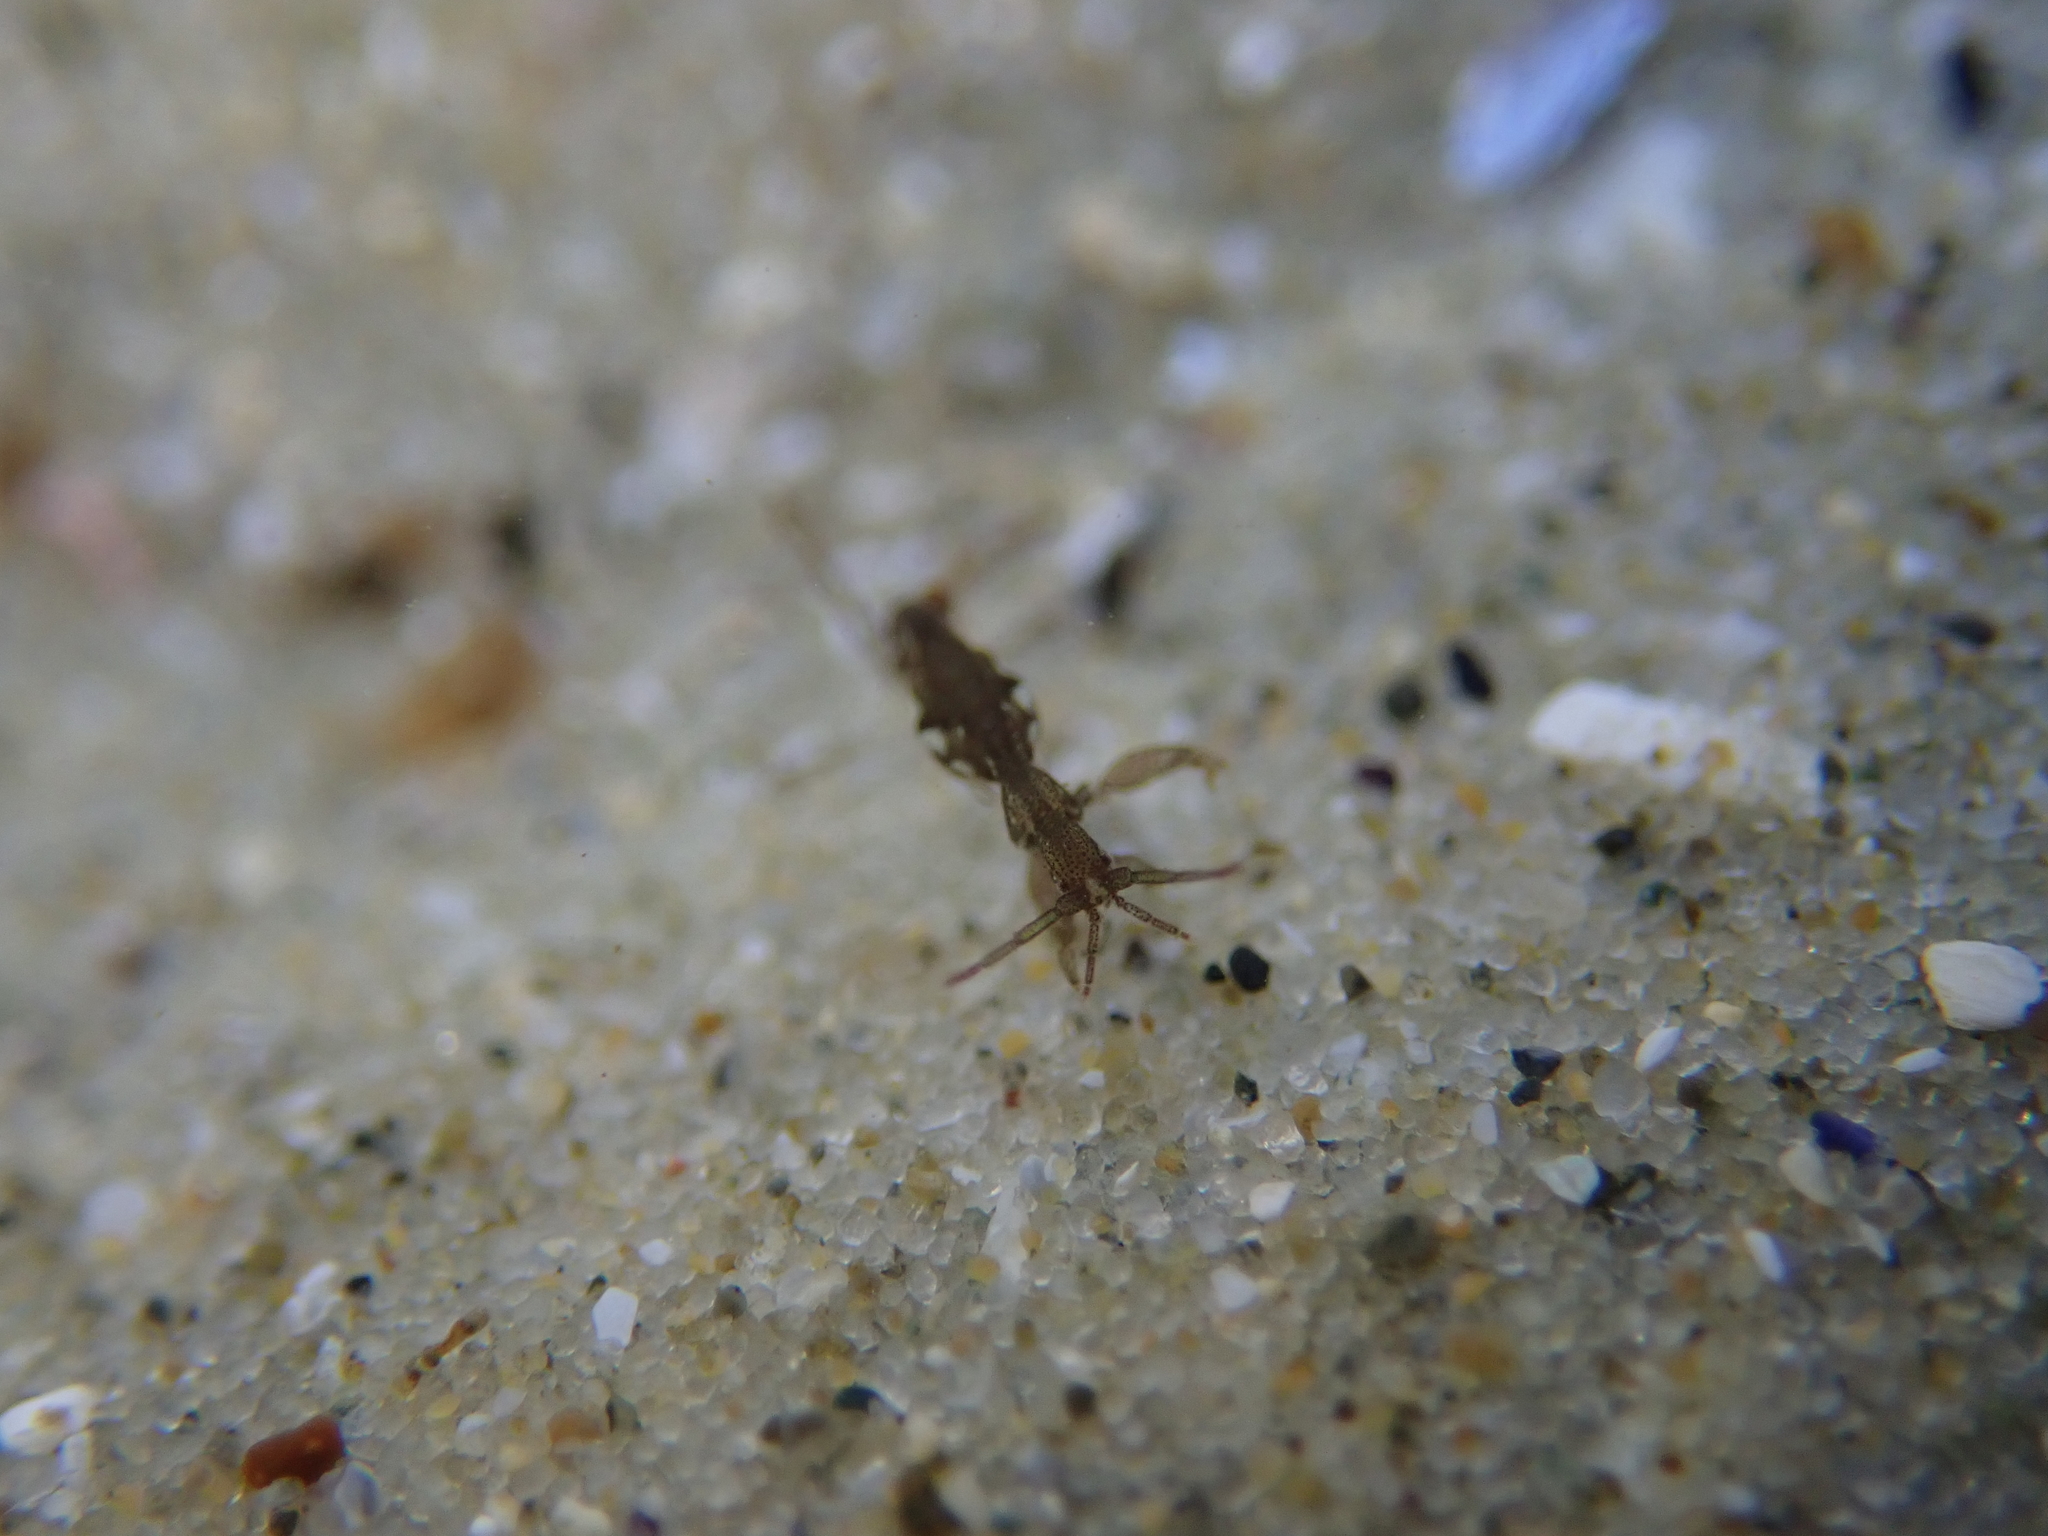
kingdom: Animalia
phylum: Arthropoda
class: Malacostraca
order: Amphipoda
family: Caprellidae
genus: Caprellina
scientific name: Caprellina longicollis
